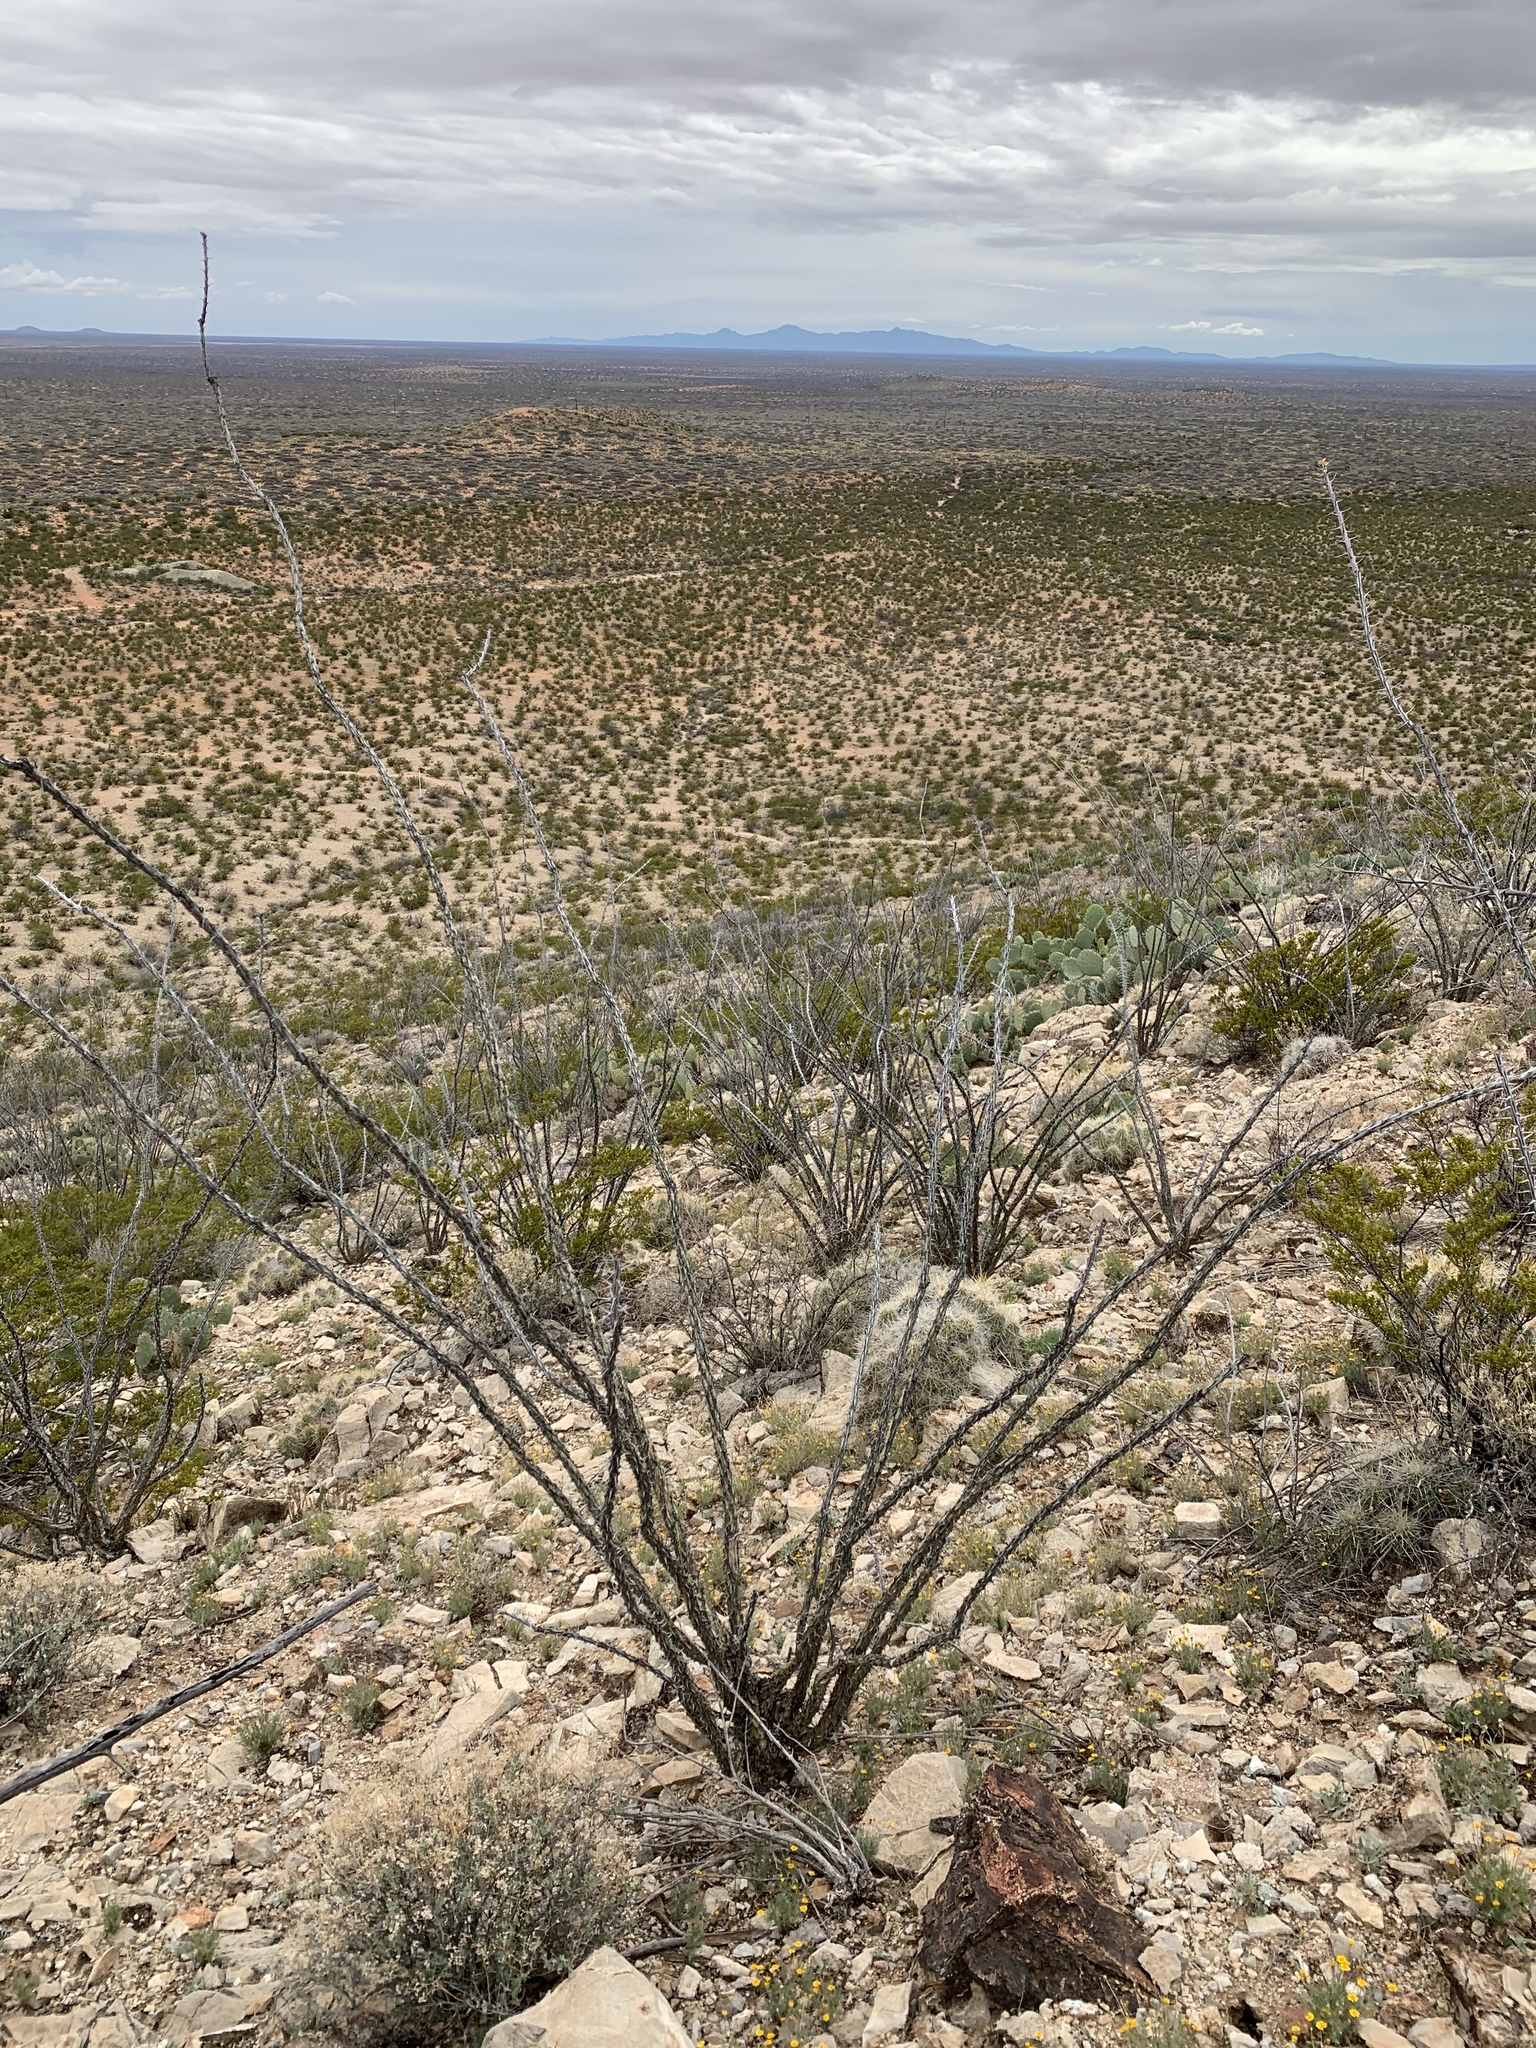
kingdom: Plantae
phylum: Tracheophyta
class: Magnoliopsida
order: Ericales
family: Fouquieriaceae
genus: Fouquieria
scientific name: Fouquieria splendens
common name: Vine-cactus
